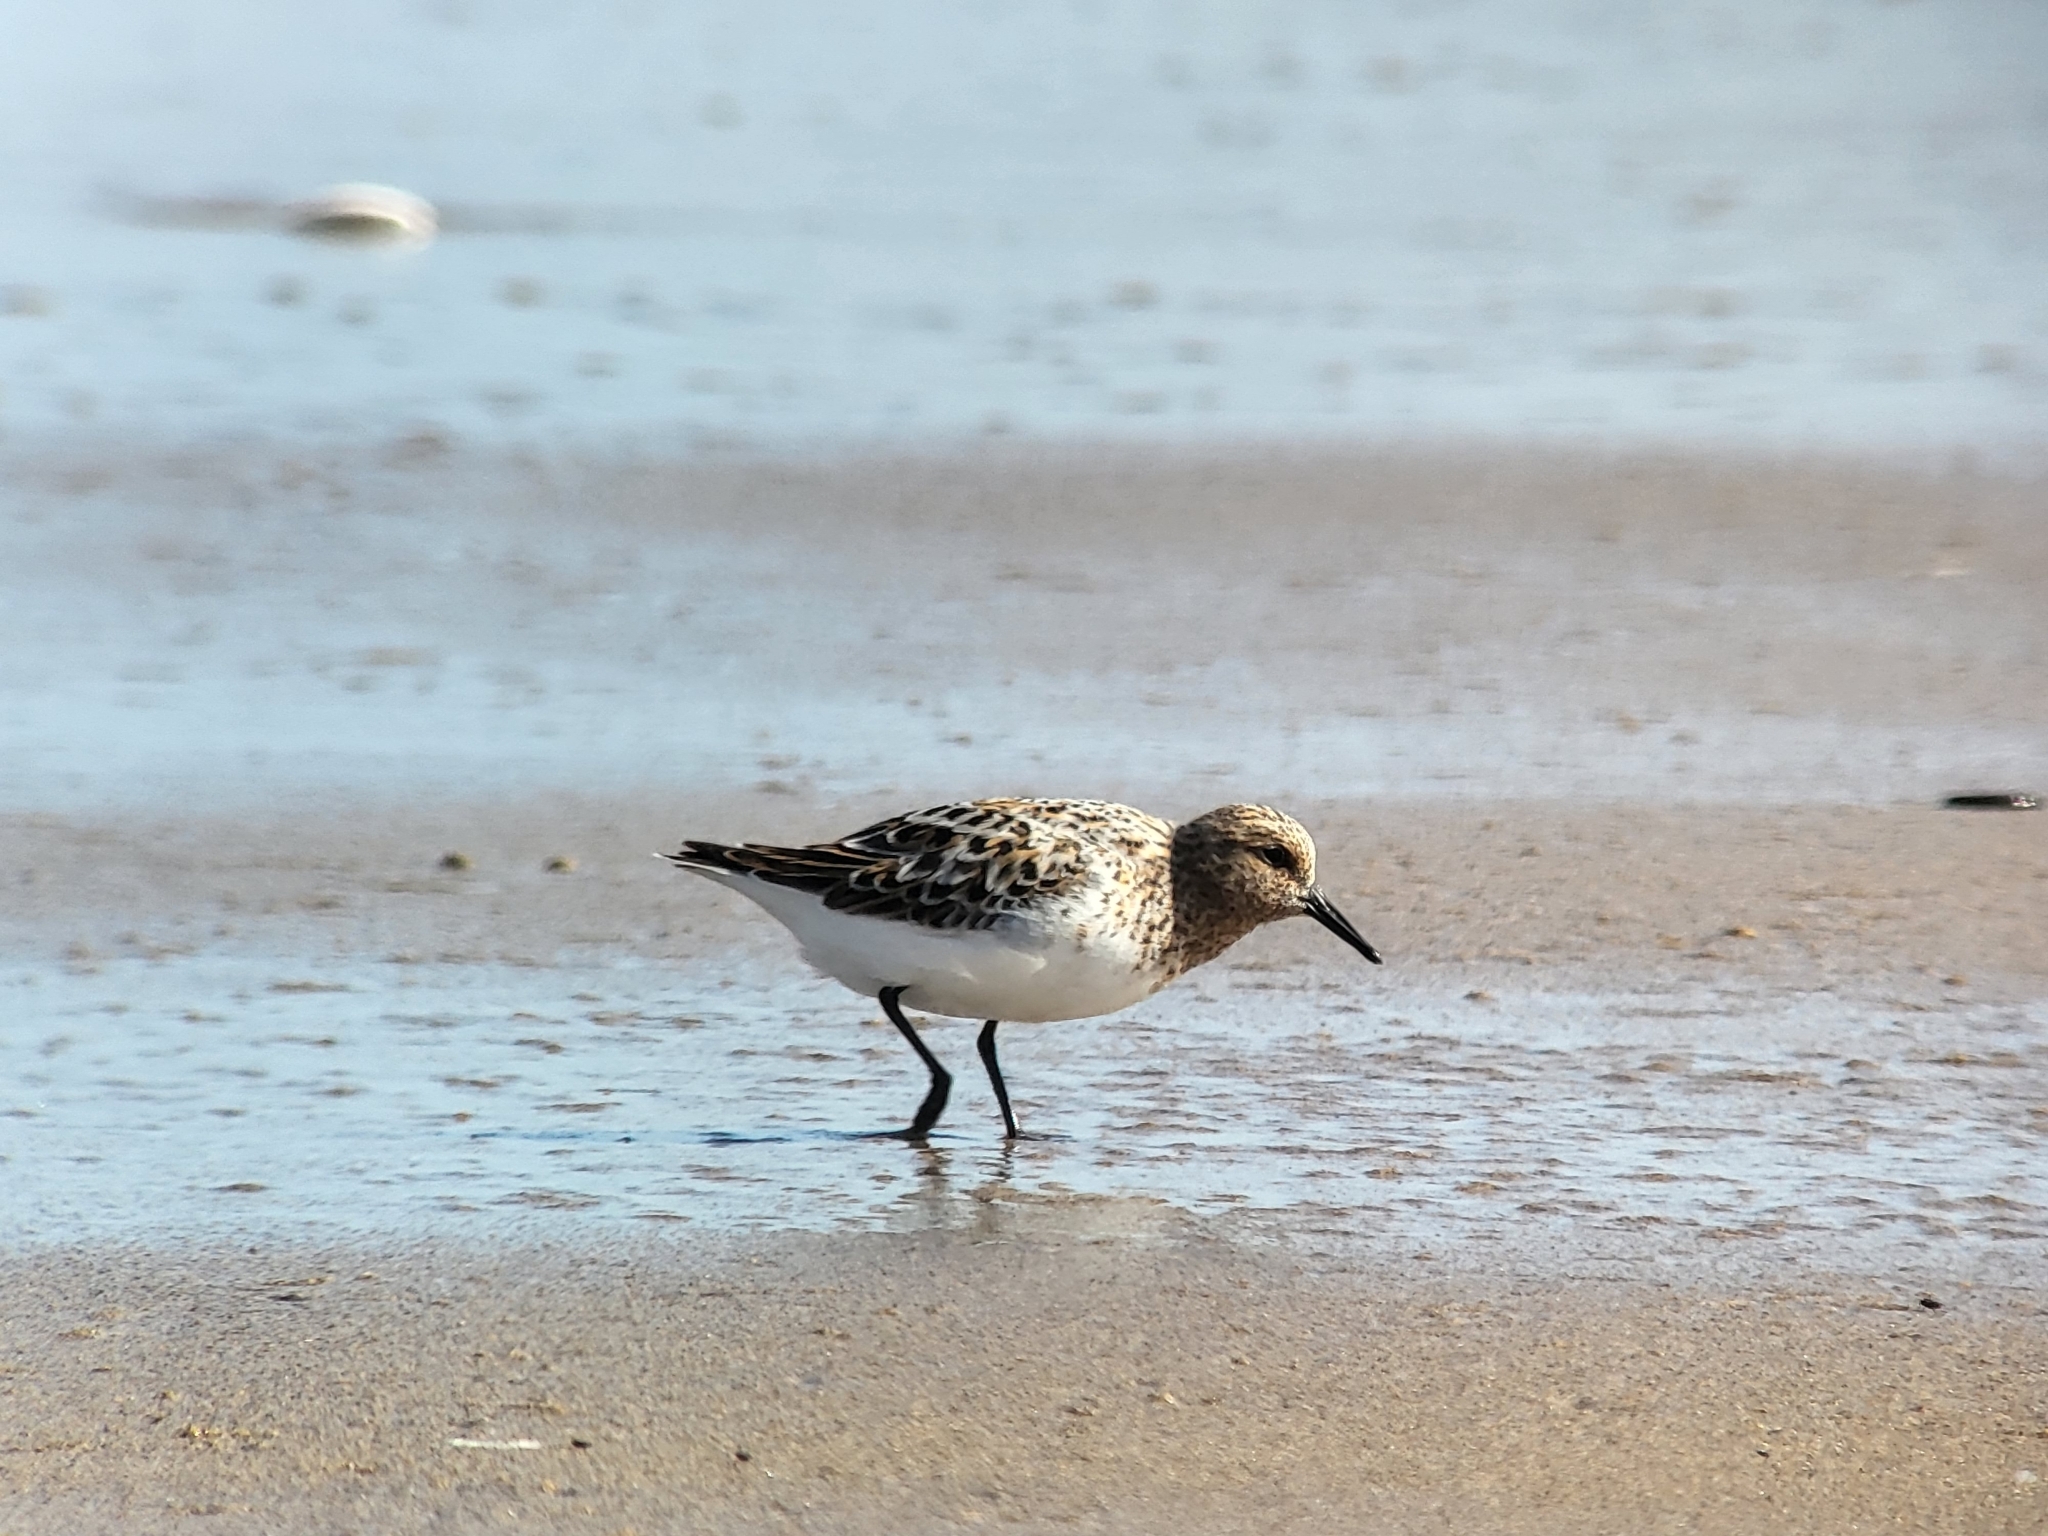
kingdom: Animalia
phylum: Chordata
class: Aves
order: Charadriiformes
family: Scolopacidae
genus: Calidris
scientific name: Calidris alba
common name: Sanderling
